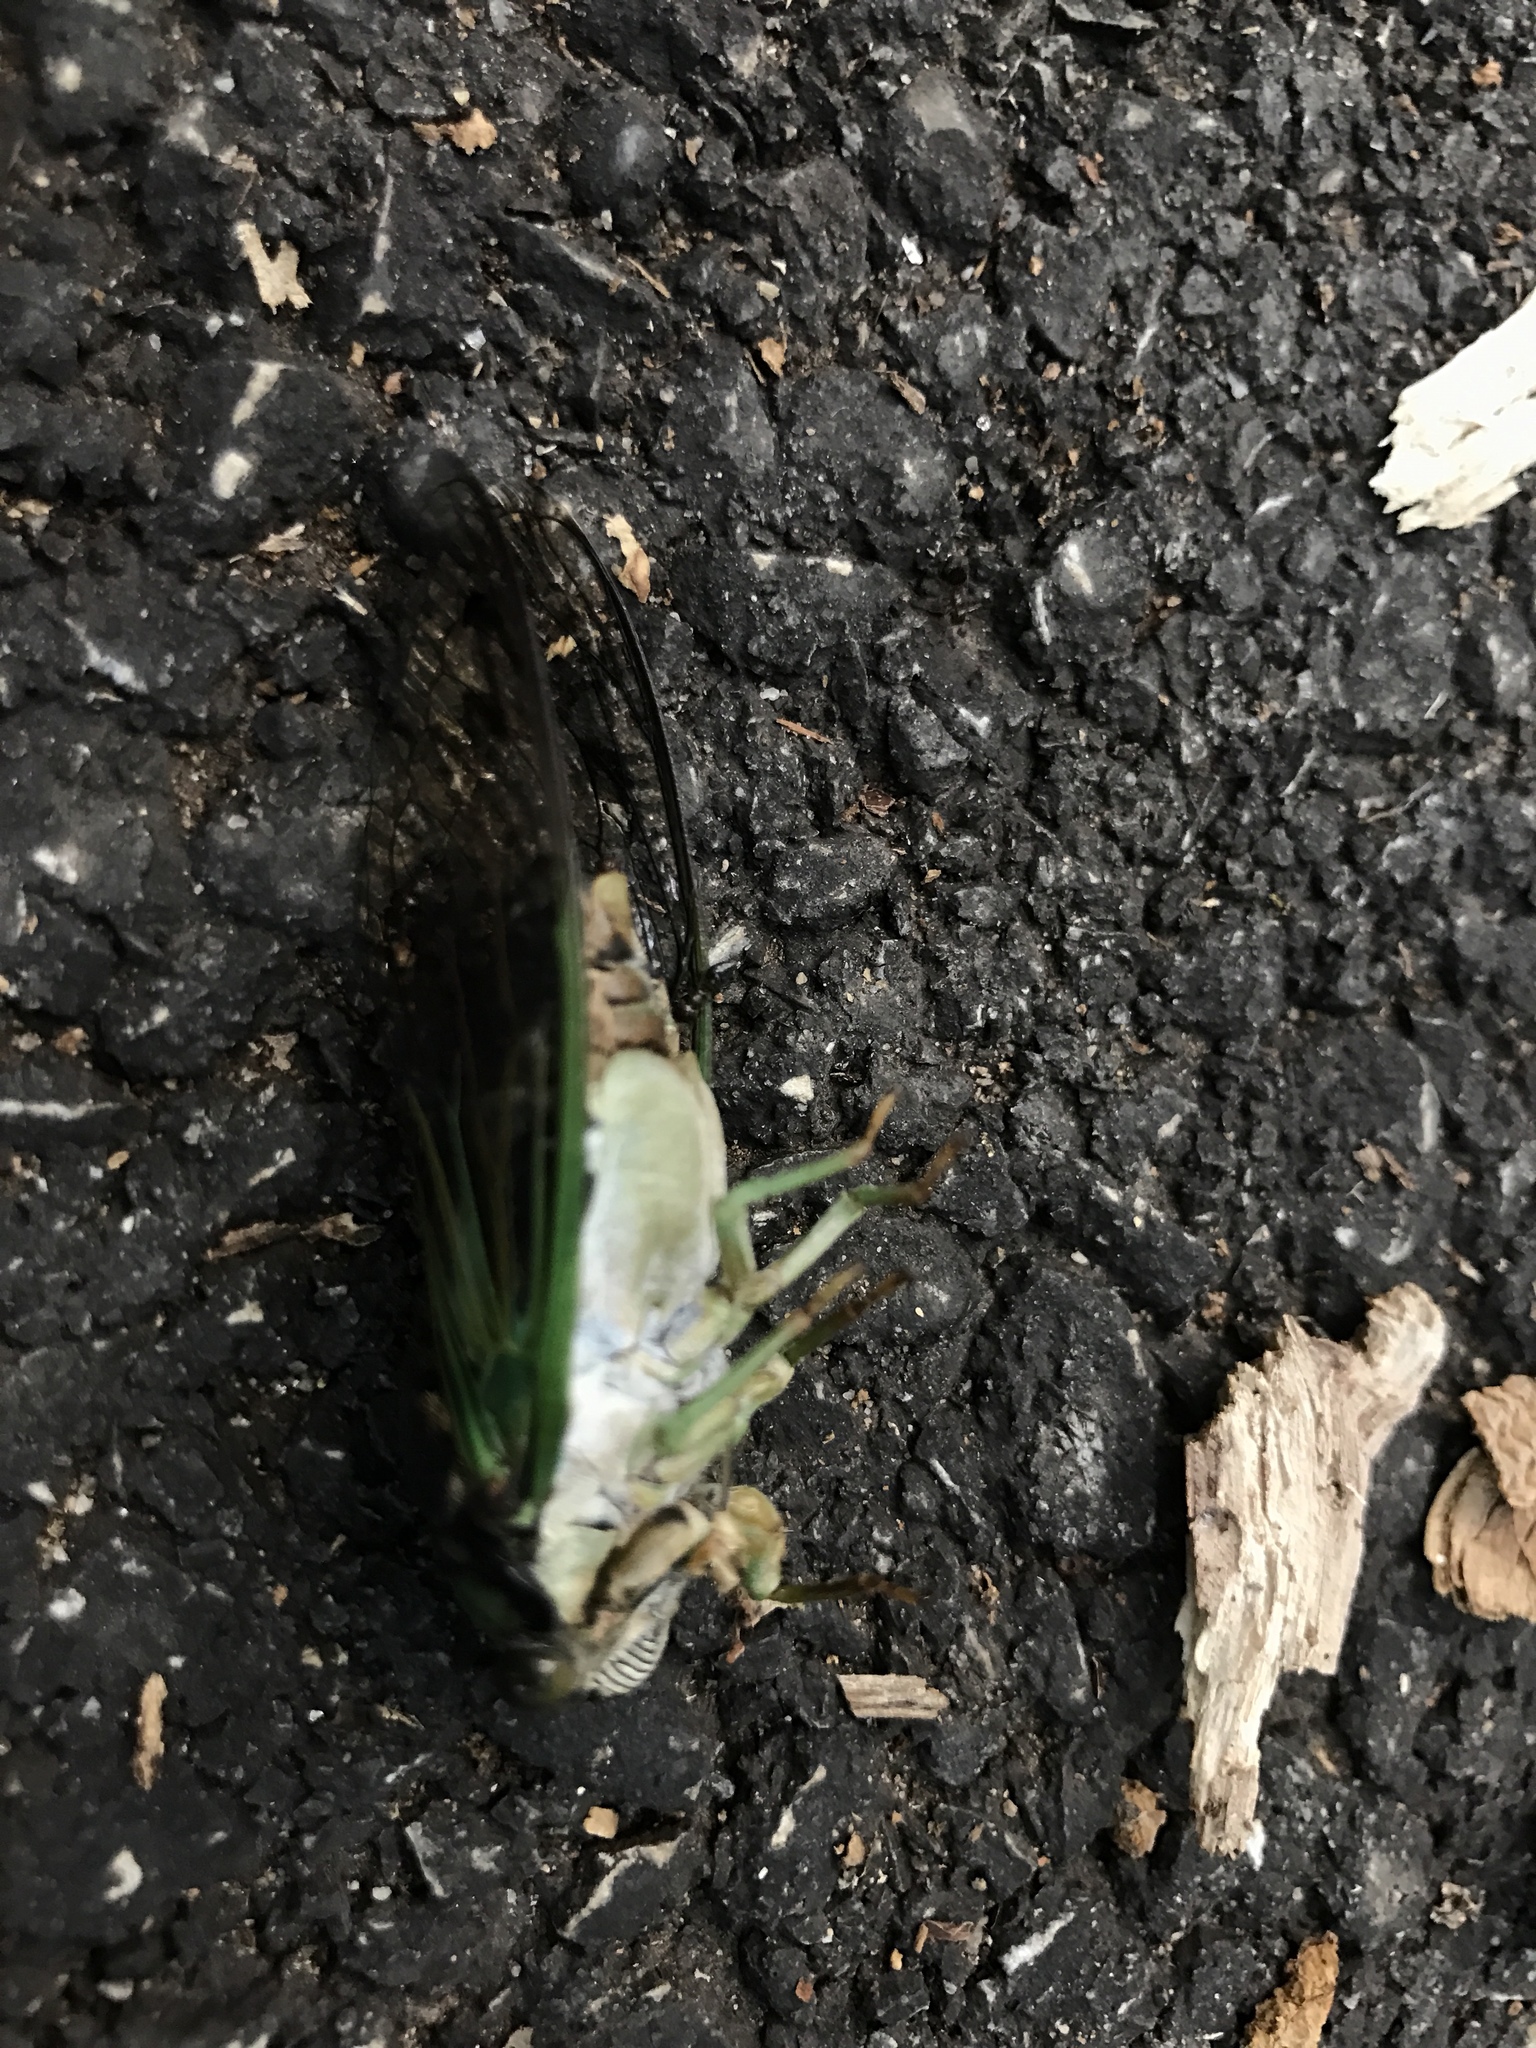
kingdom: Animalia
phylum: Arthropoda
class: Insecta
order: Hemiptera
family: Cicadidae
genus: Neotibicen
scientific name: Neotibicen tibicen
